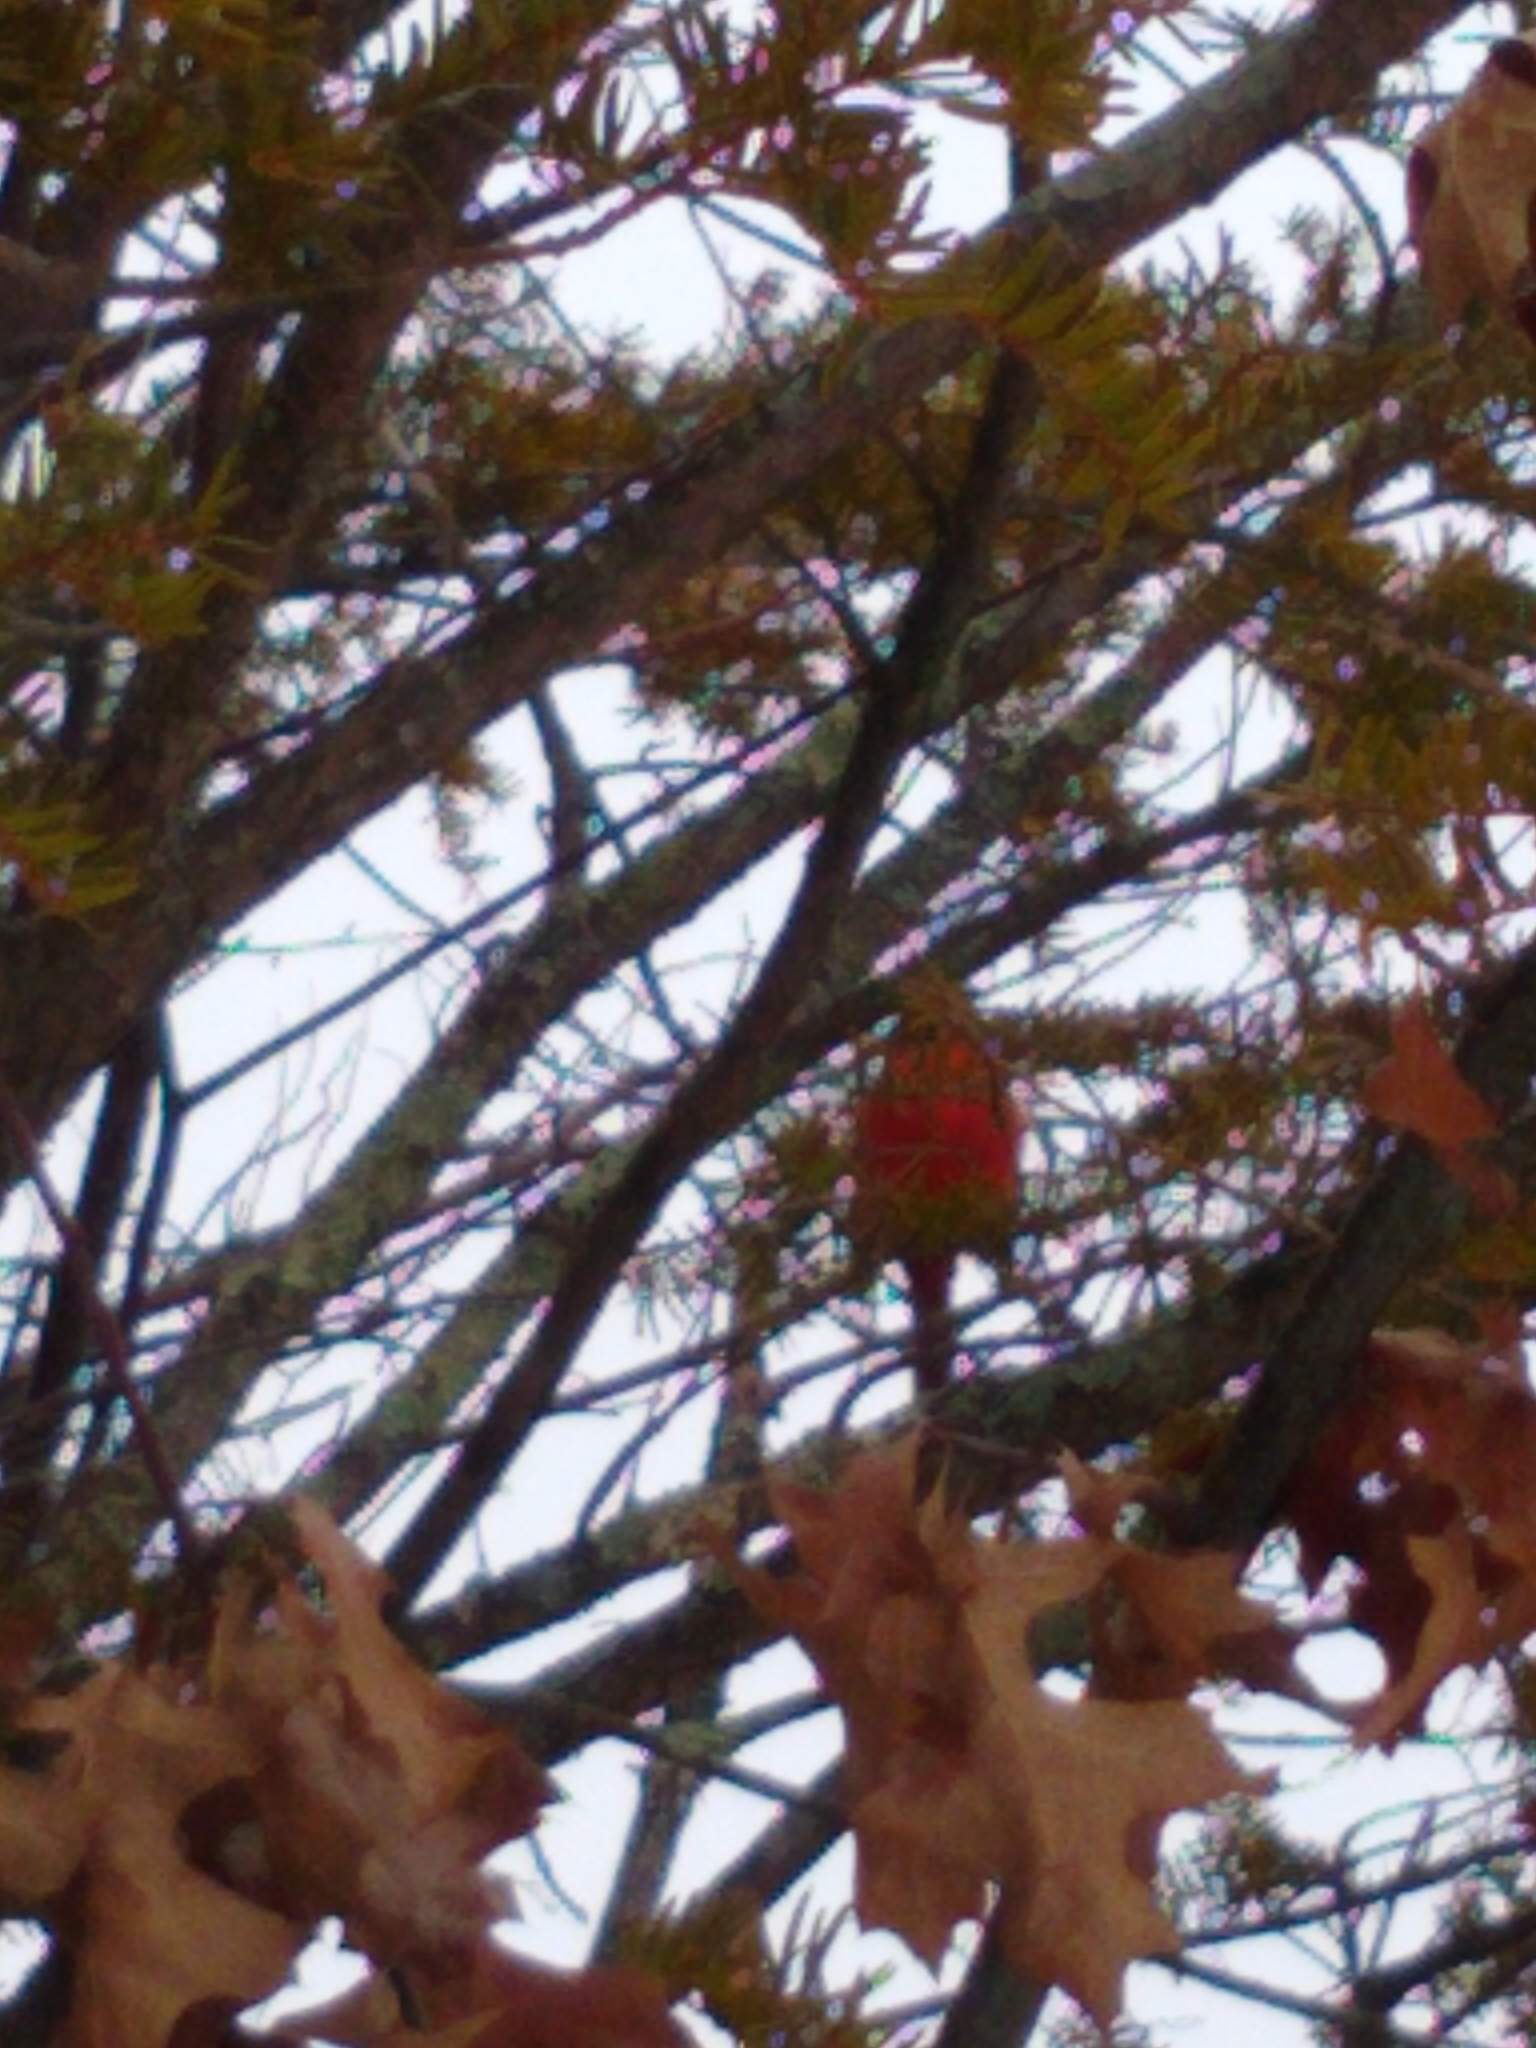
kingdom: Animalia
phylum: Chordata
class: Aves
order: Passeriformes
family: Cardinalidae
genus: Cardinalis
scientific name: Cardinalis cardinalis
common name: Northern cardinal
